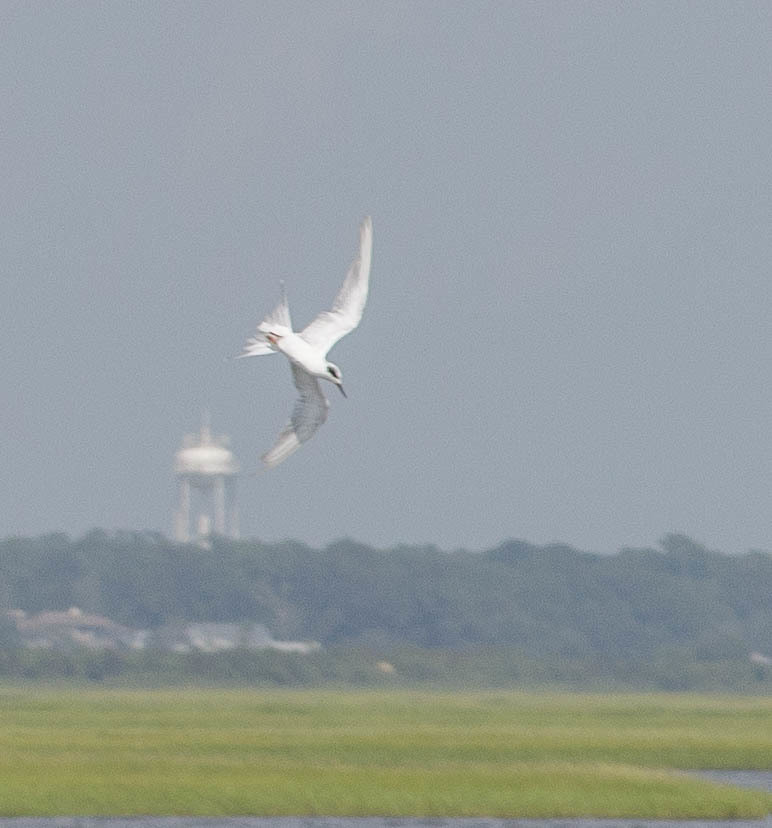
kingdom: Animalia
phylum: Chordata
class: Aves
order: Charadriiformes
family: Laridae
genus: Sterna
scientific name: Sterna forsteri
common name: Forster's tern
